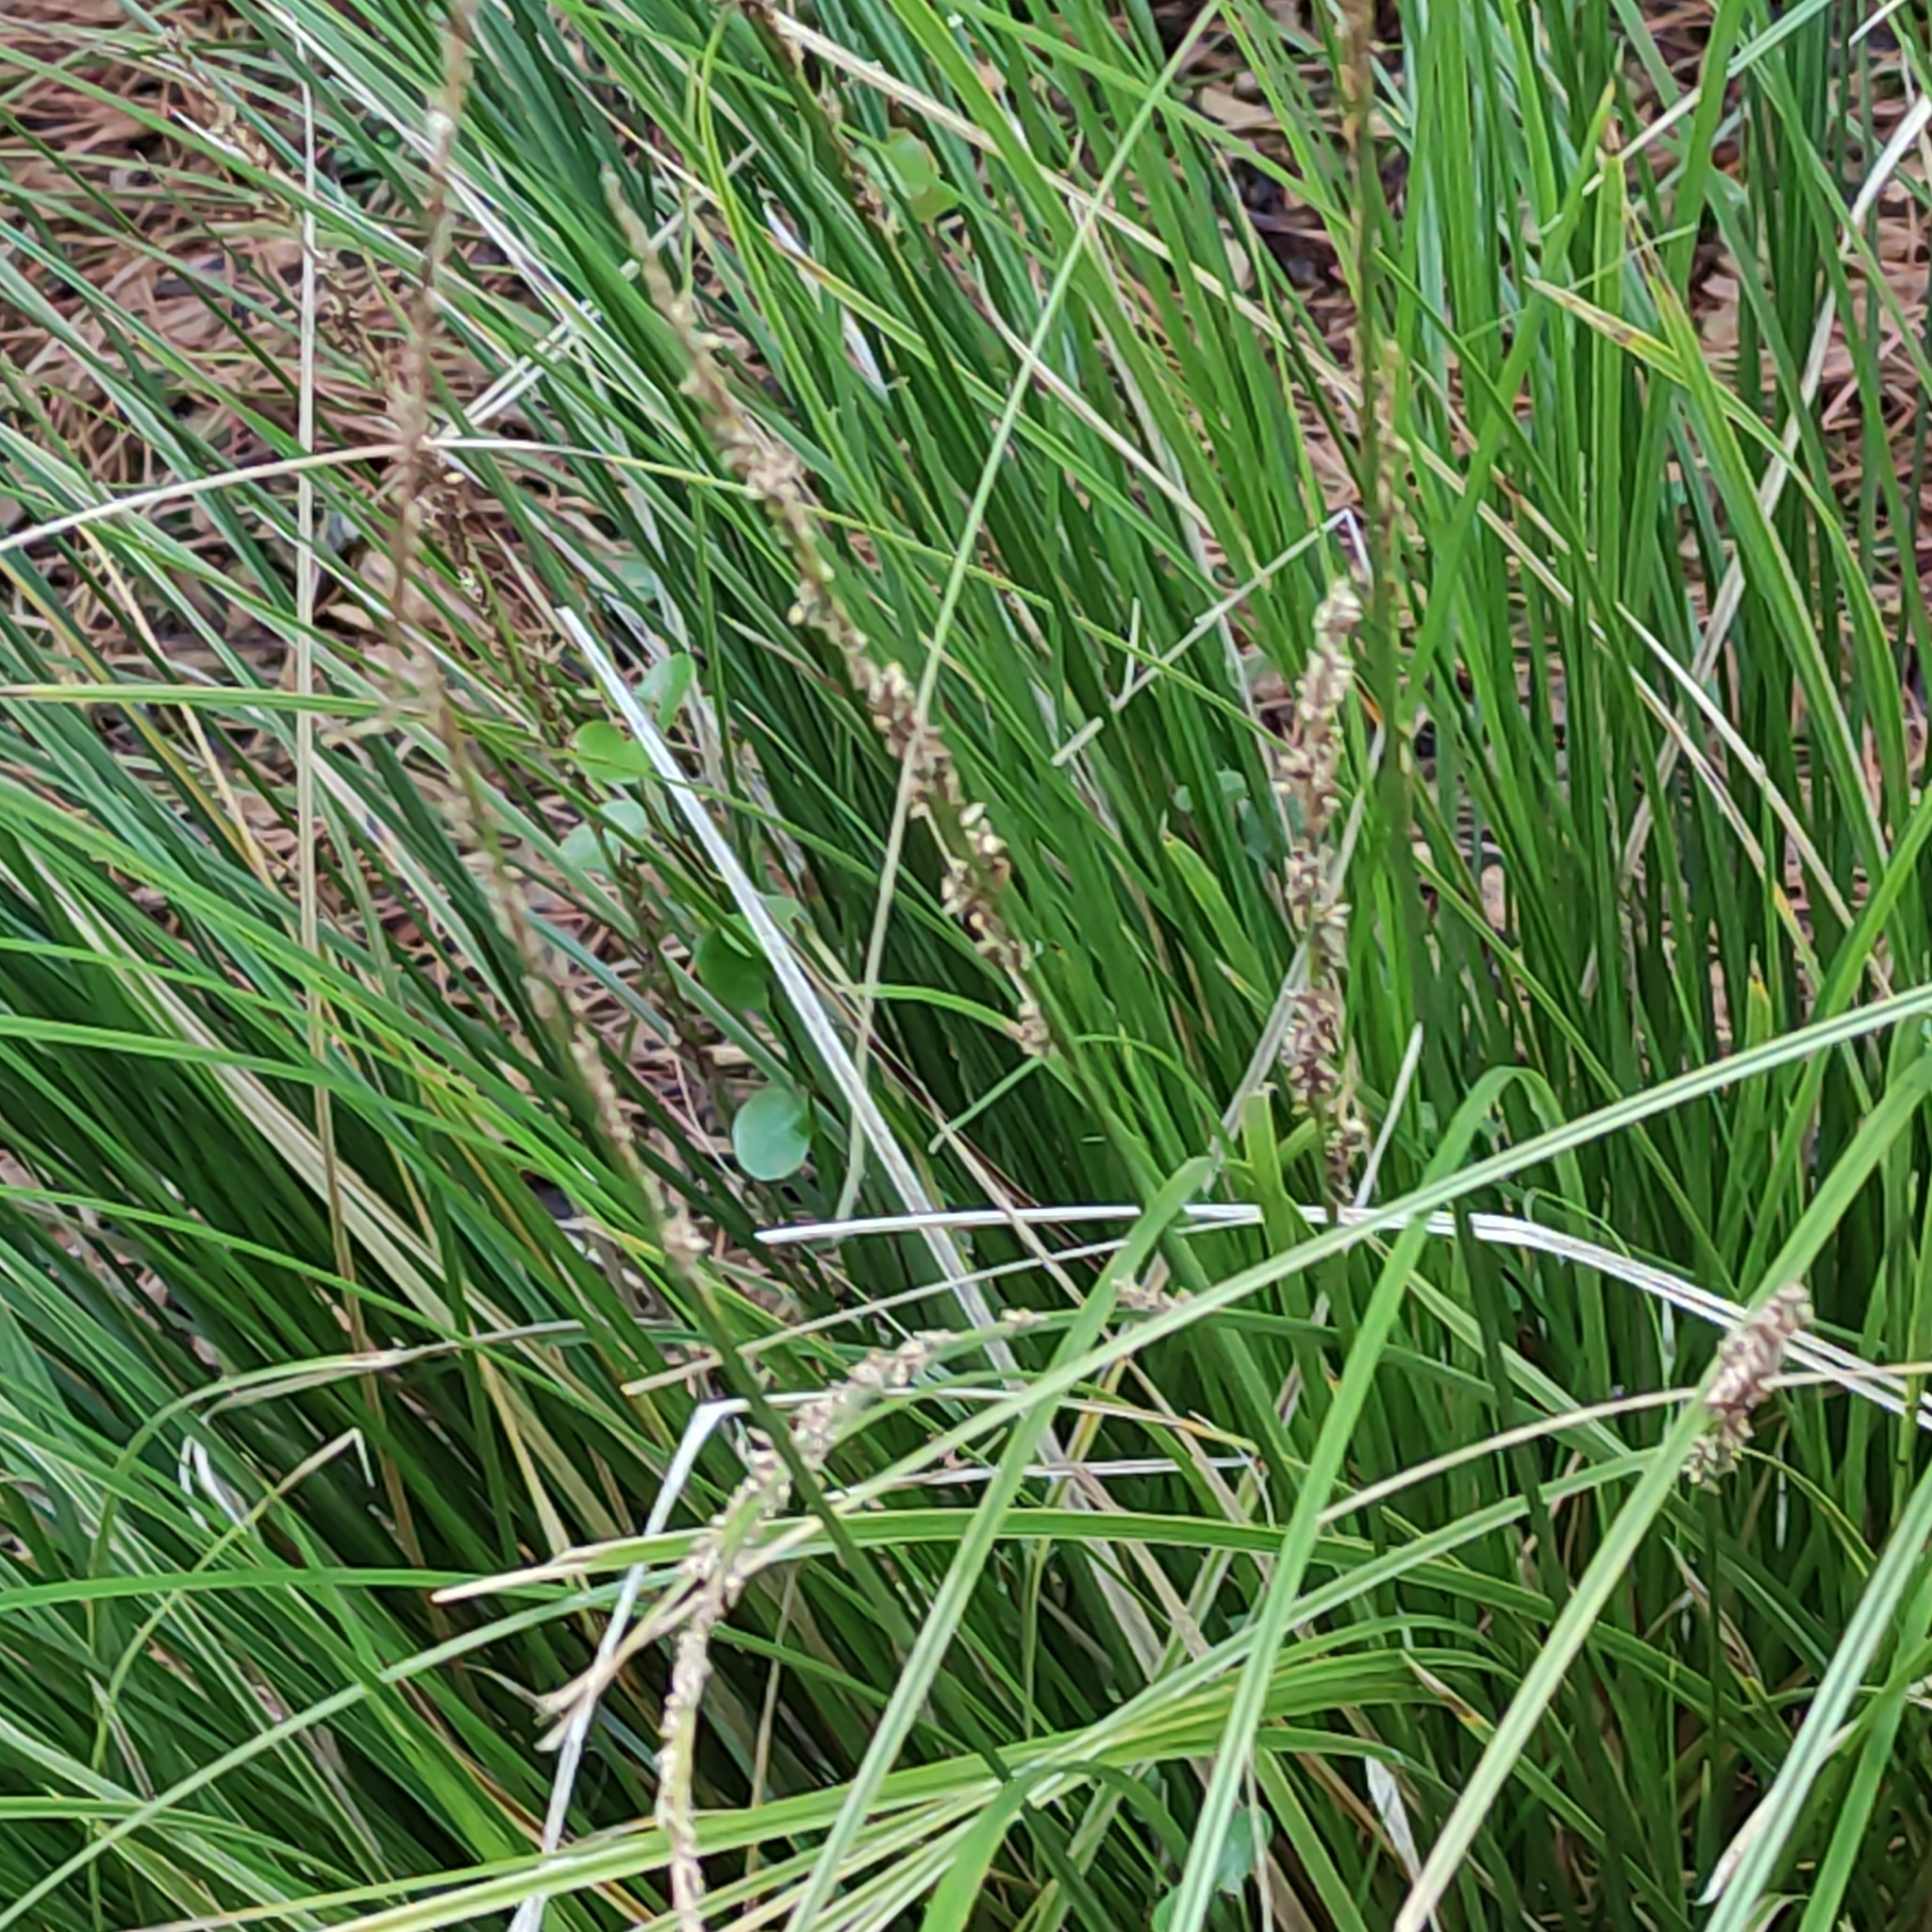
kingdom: Plantae
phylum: Tracheophyta
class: Liliopsida
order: Poales
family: Cyperaceae
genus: Carex
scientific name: Carex virgata
